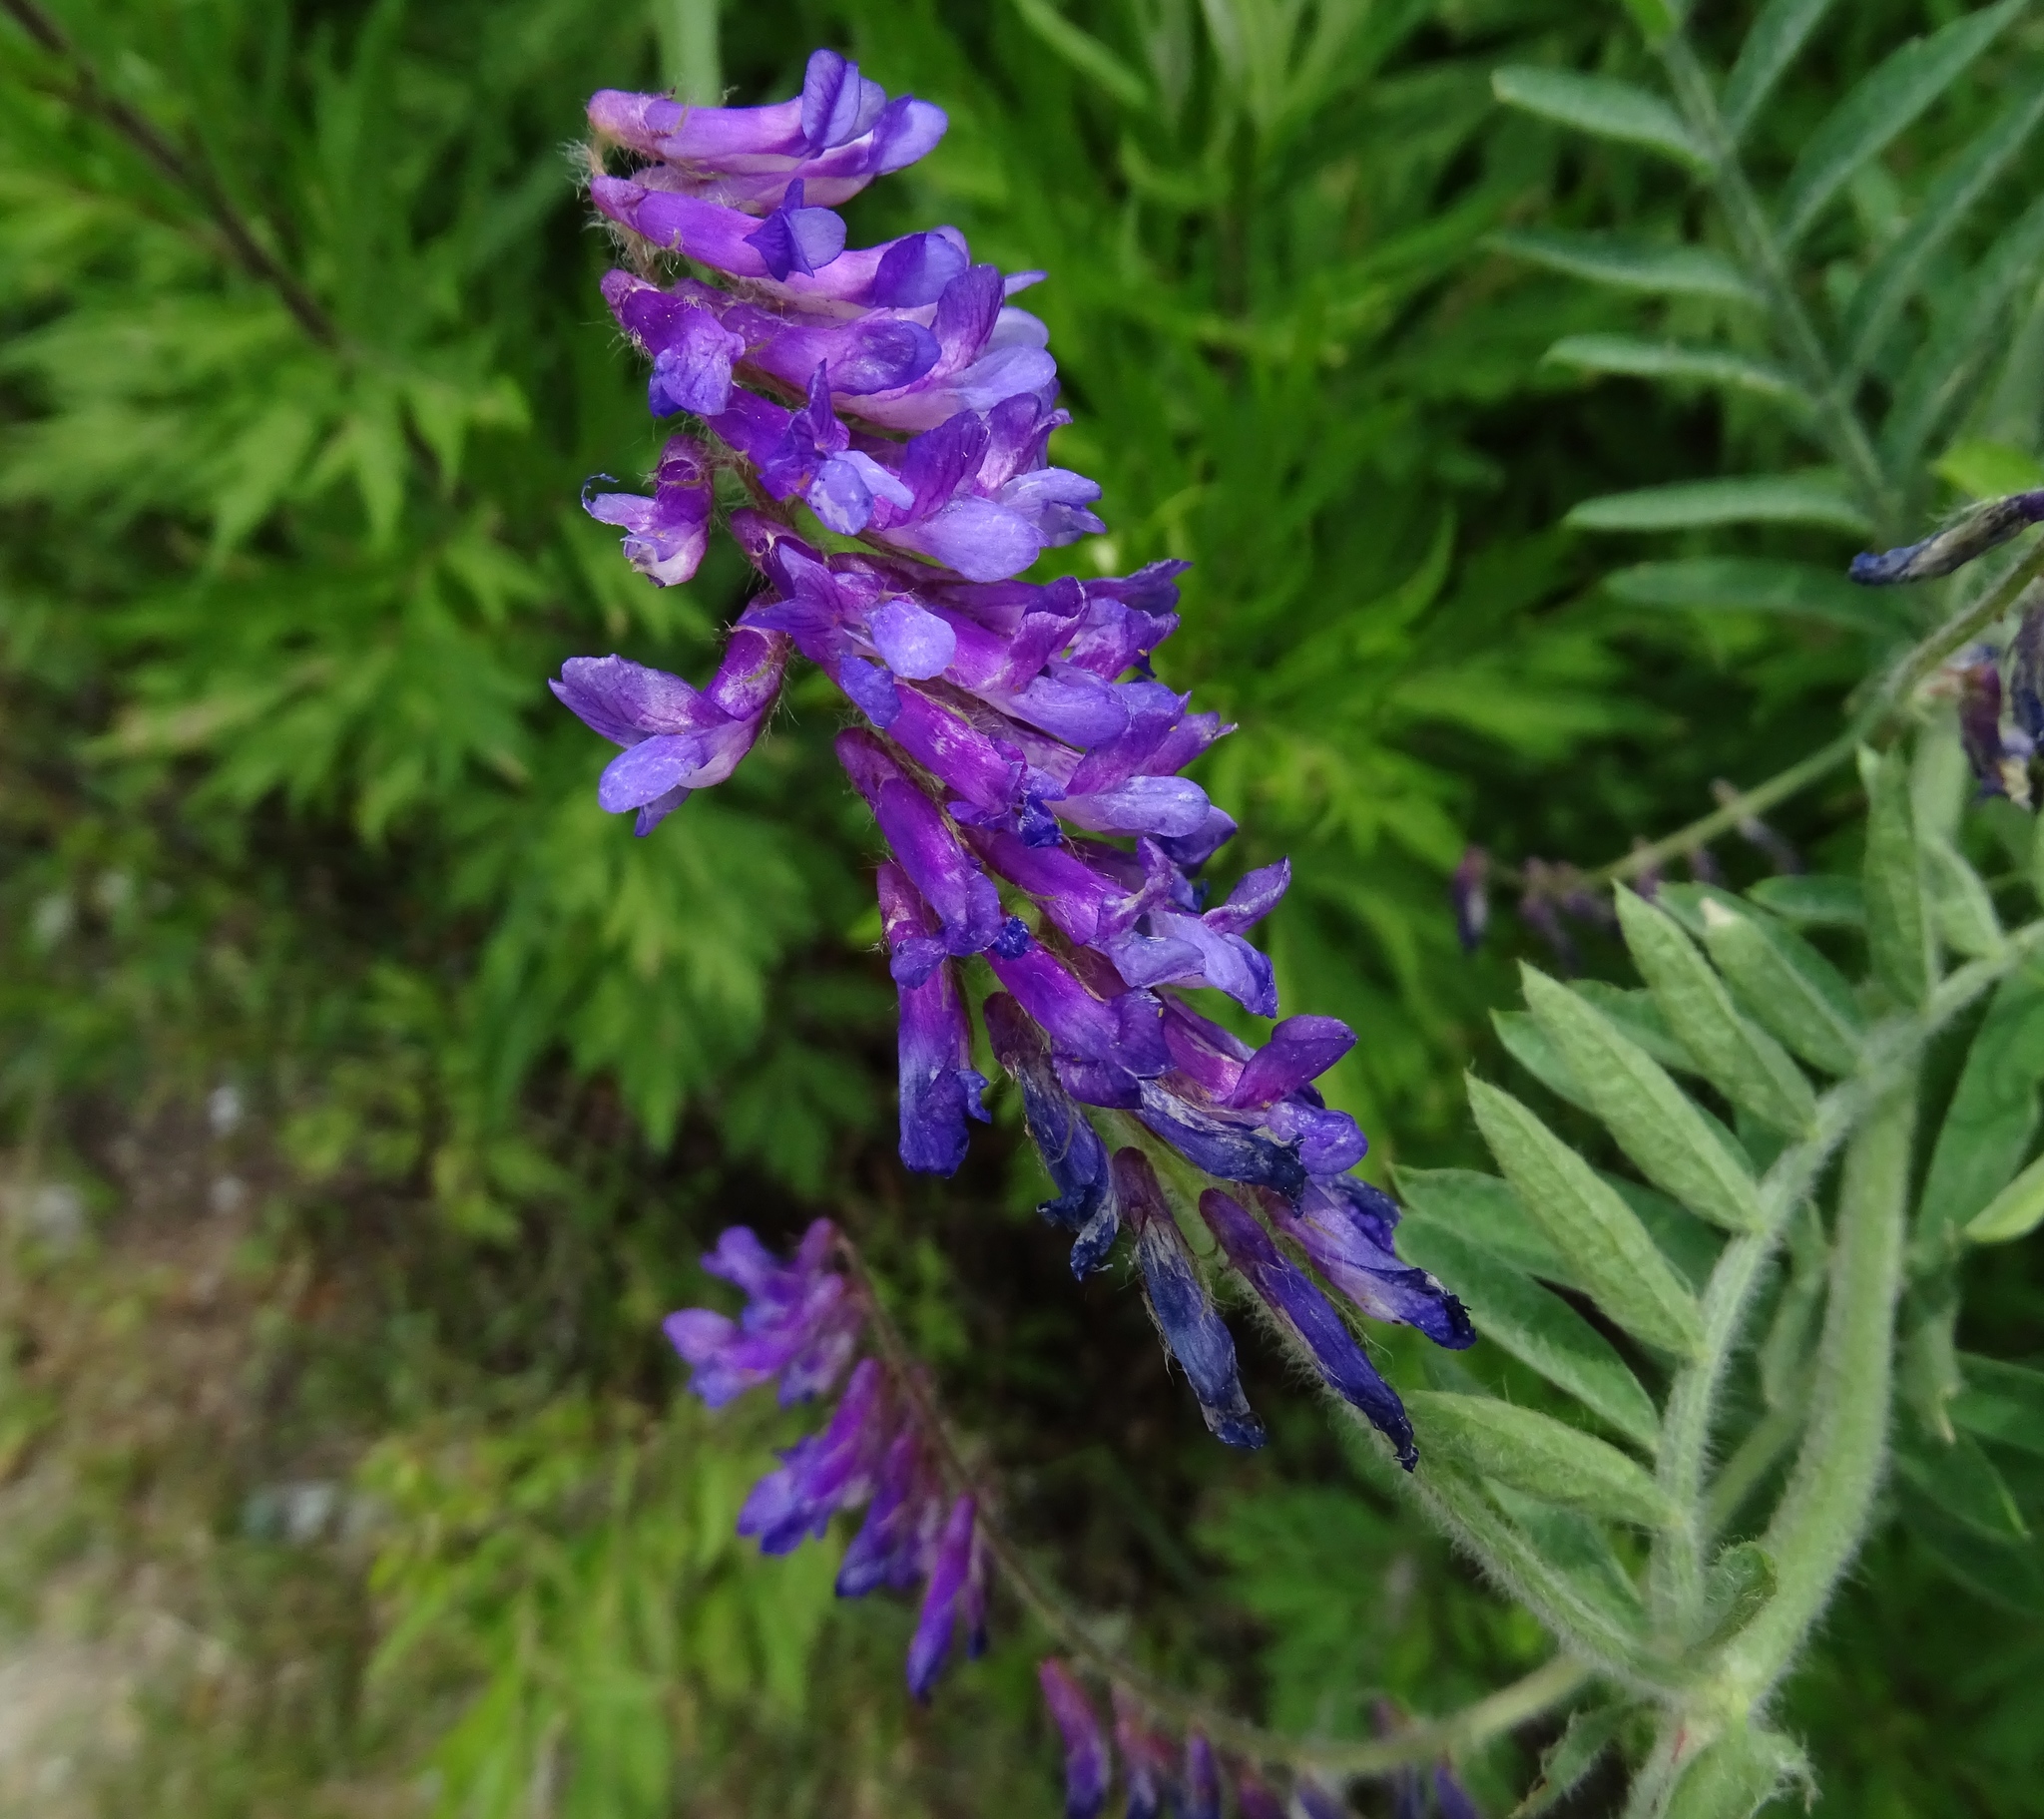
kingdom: Plantae
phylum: Tracheophyta
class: Magnoliopsida
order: Fabales
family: Fabaceae
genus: Vicia
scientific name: Vicia villosa
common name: Fodder vetch
